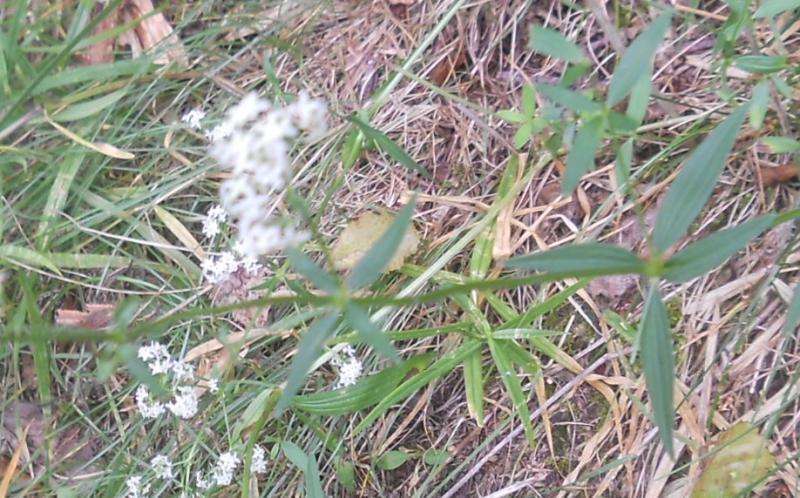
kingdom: Plantae
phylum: Tracheophyta
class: Magnoliopsida
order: Gentianales
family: Rubiaceae
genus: Galium
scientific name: Galium boreale
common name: Northern bedstraw
